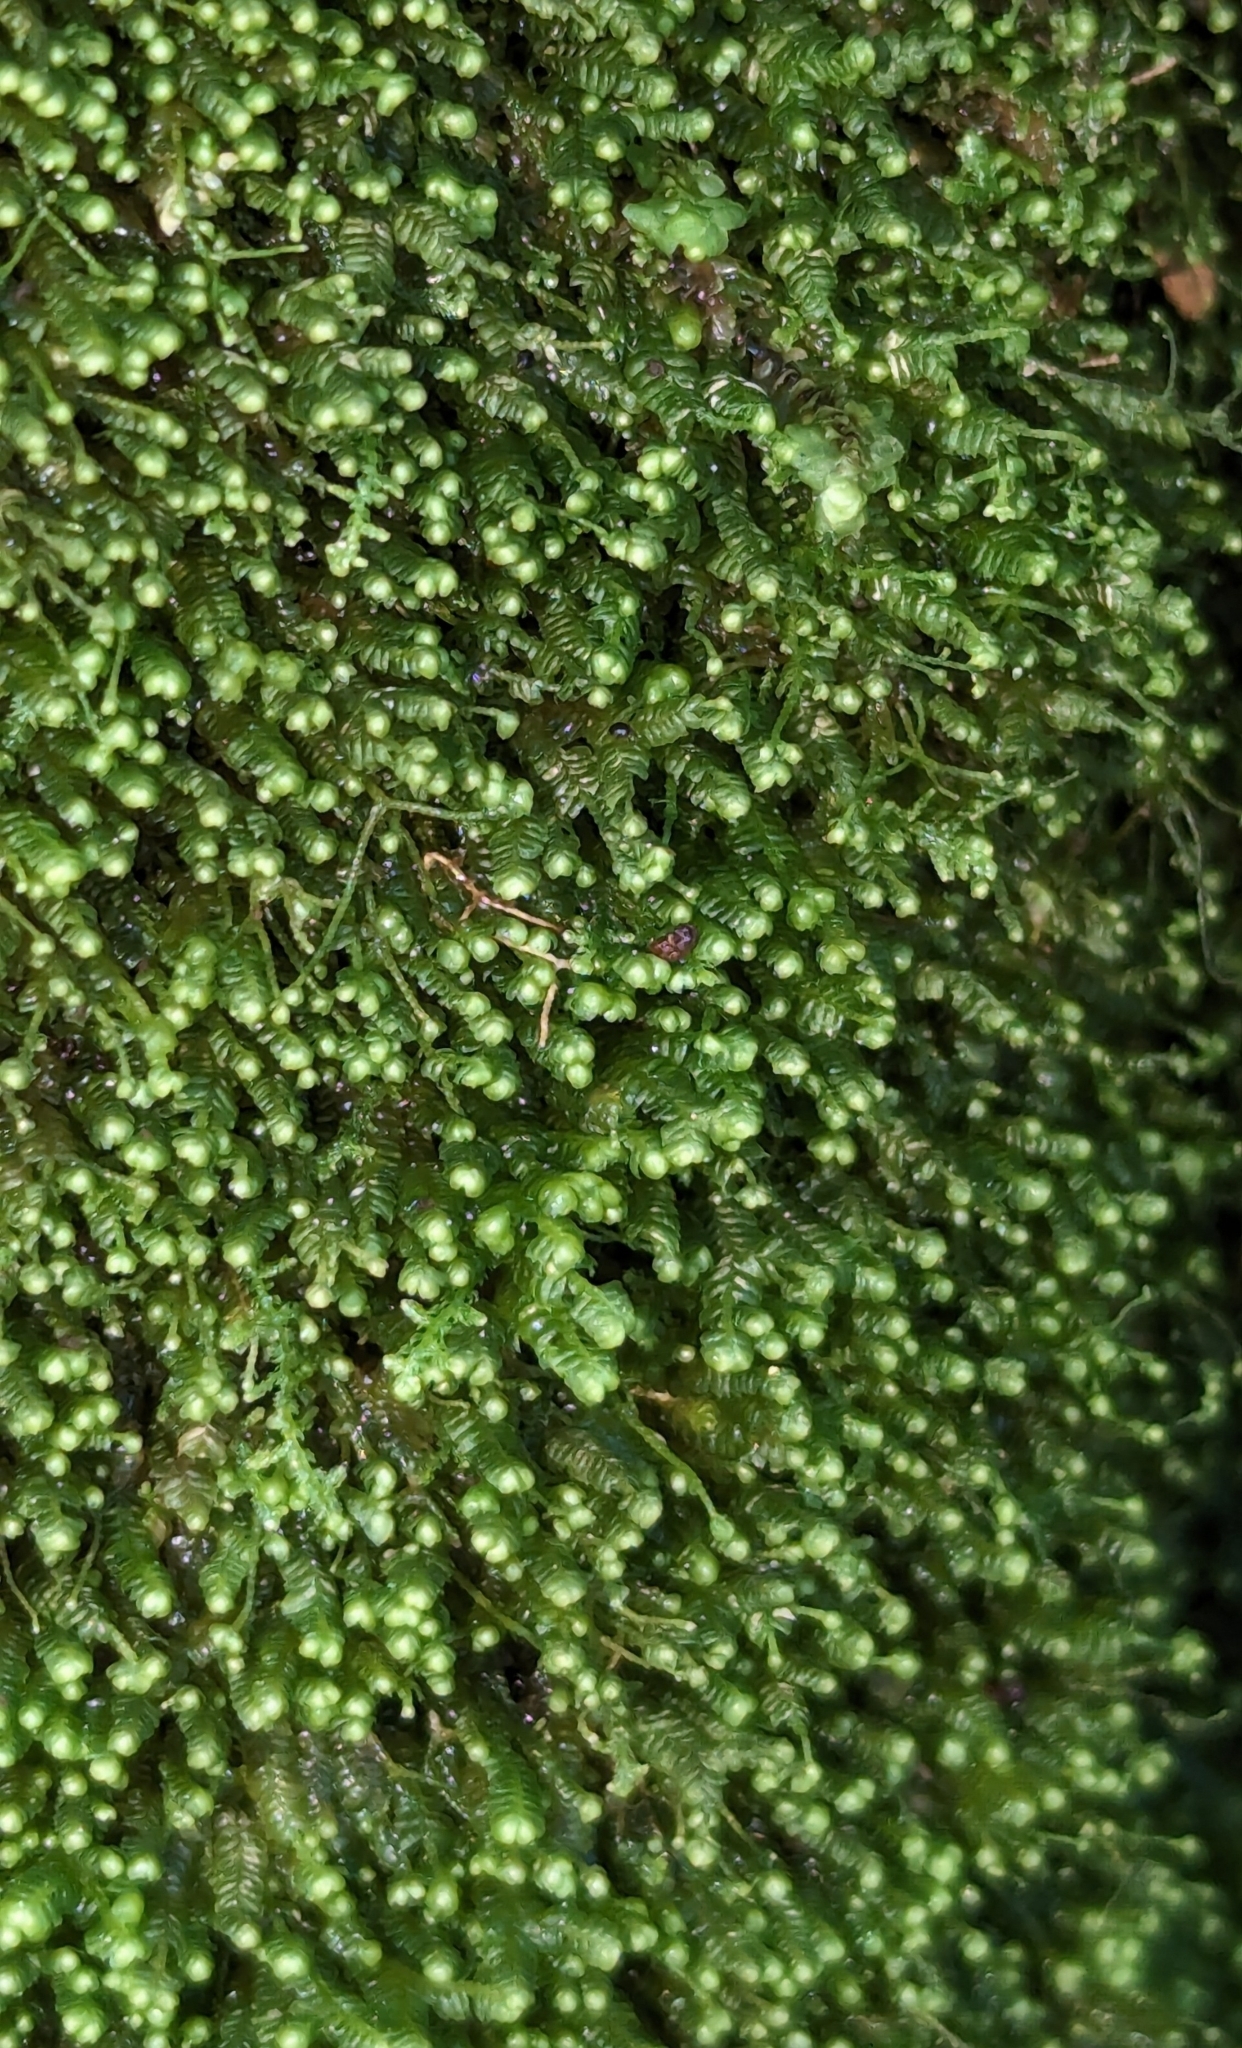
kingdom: Plantae
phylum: Marchantiophyta
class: Jungermanniopsida
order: Jungermanniales
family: Lepidoziaceae
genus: Bazzania
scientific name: Bazzania denudata
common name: Naked whipwort
